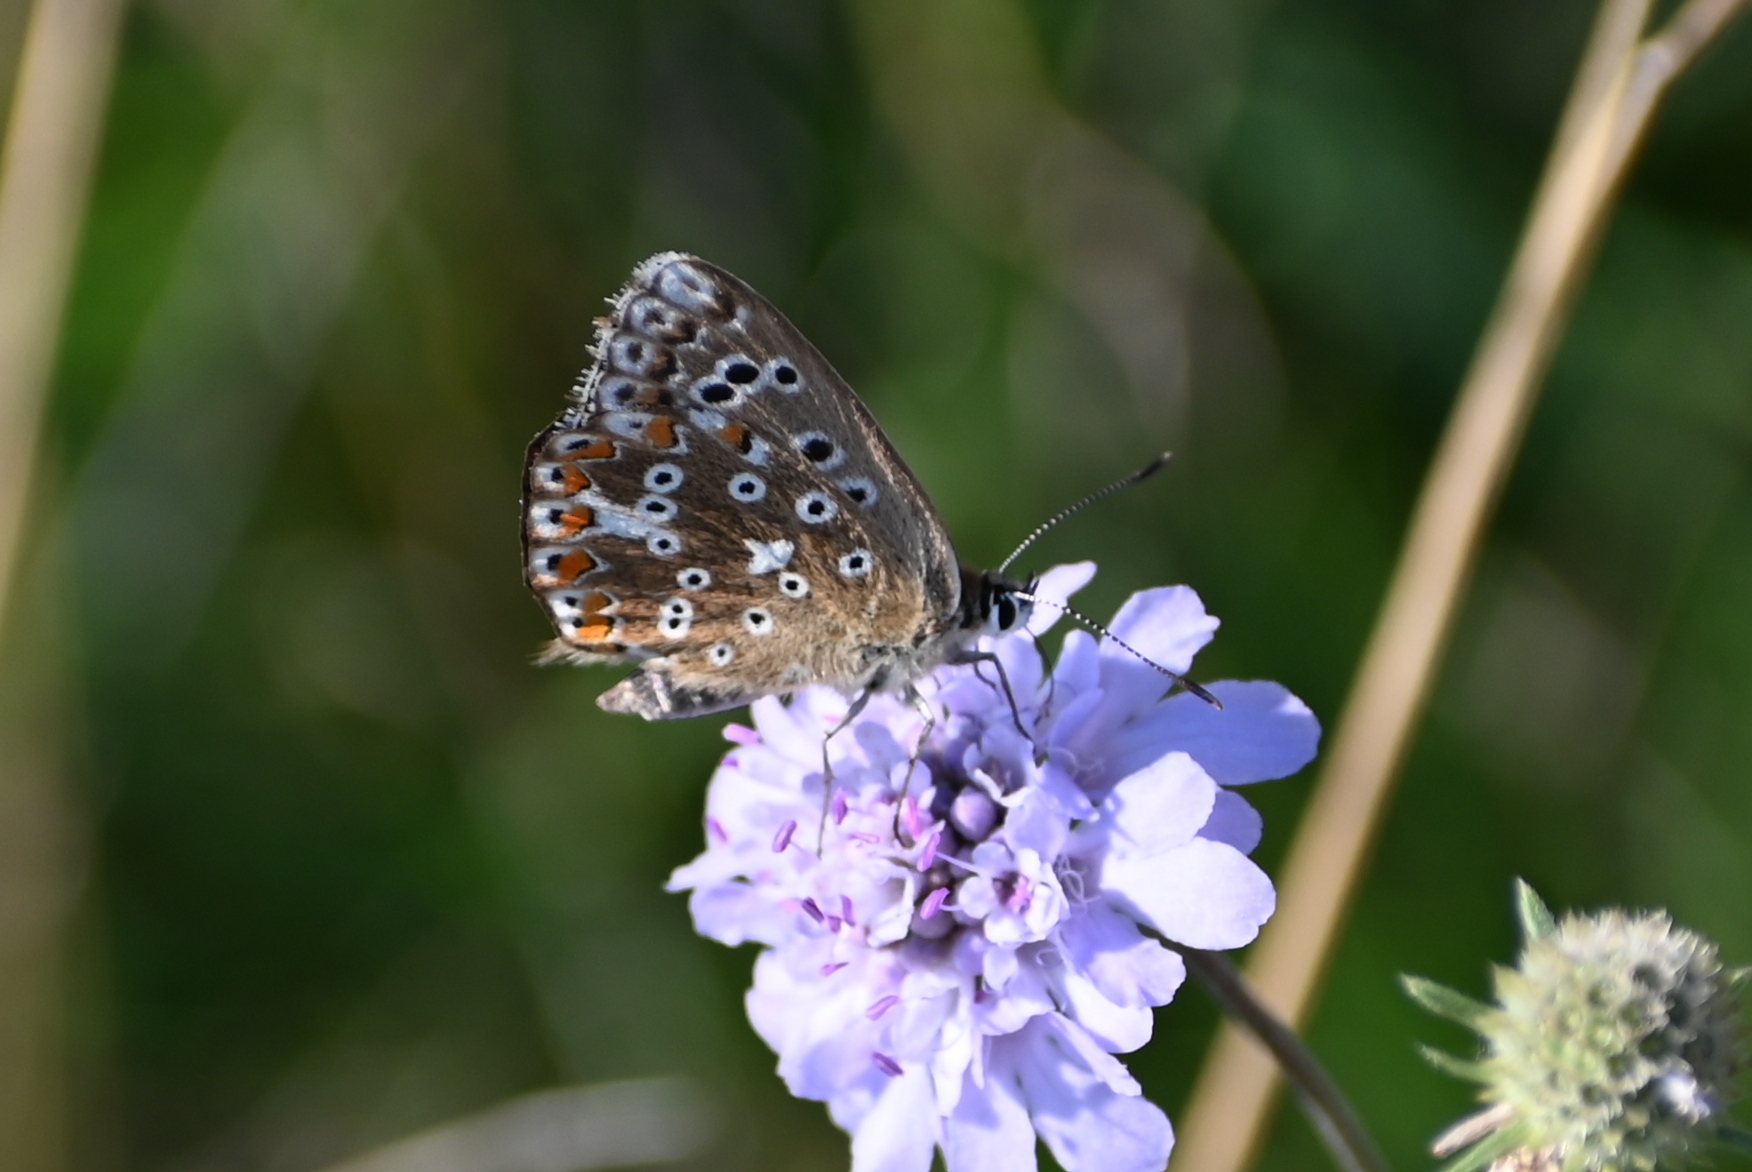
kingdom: Animalia
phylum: Arthropoda
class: Insecta
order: Lepidoptera
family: Lycaenidae
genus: Lysandra
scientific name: Lysandra coridon
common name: Chalkhill blue
